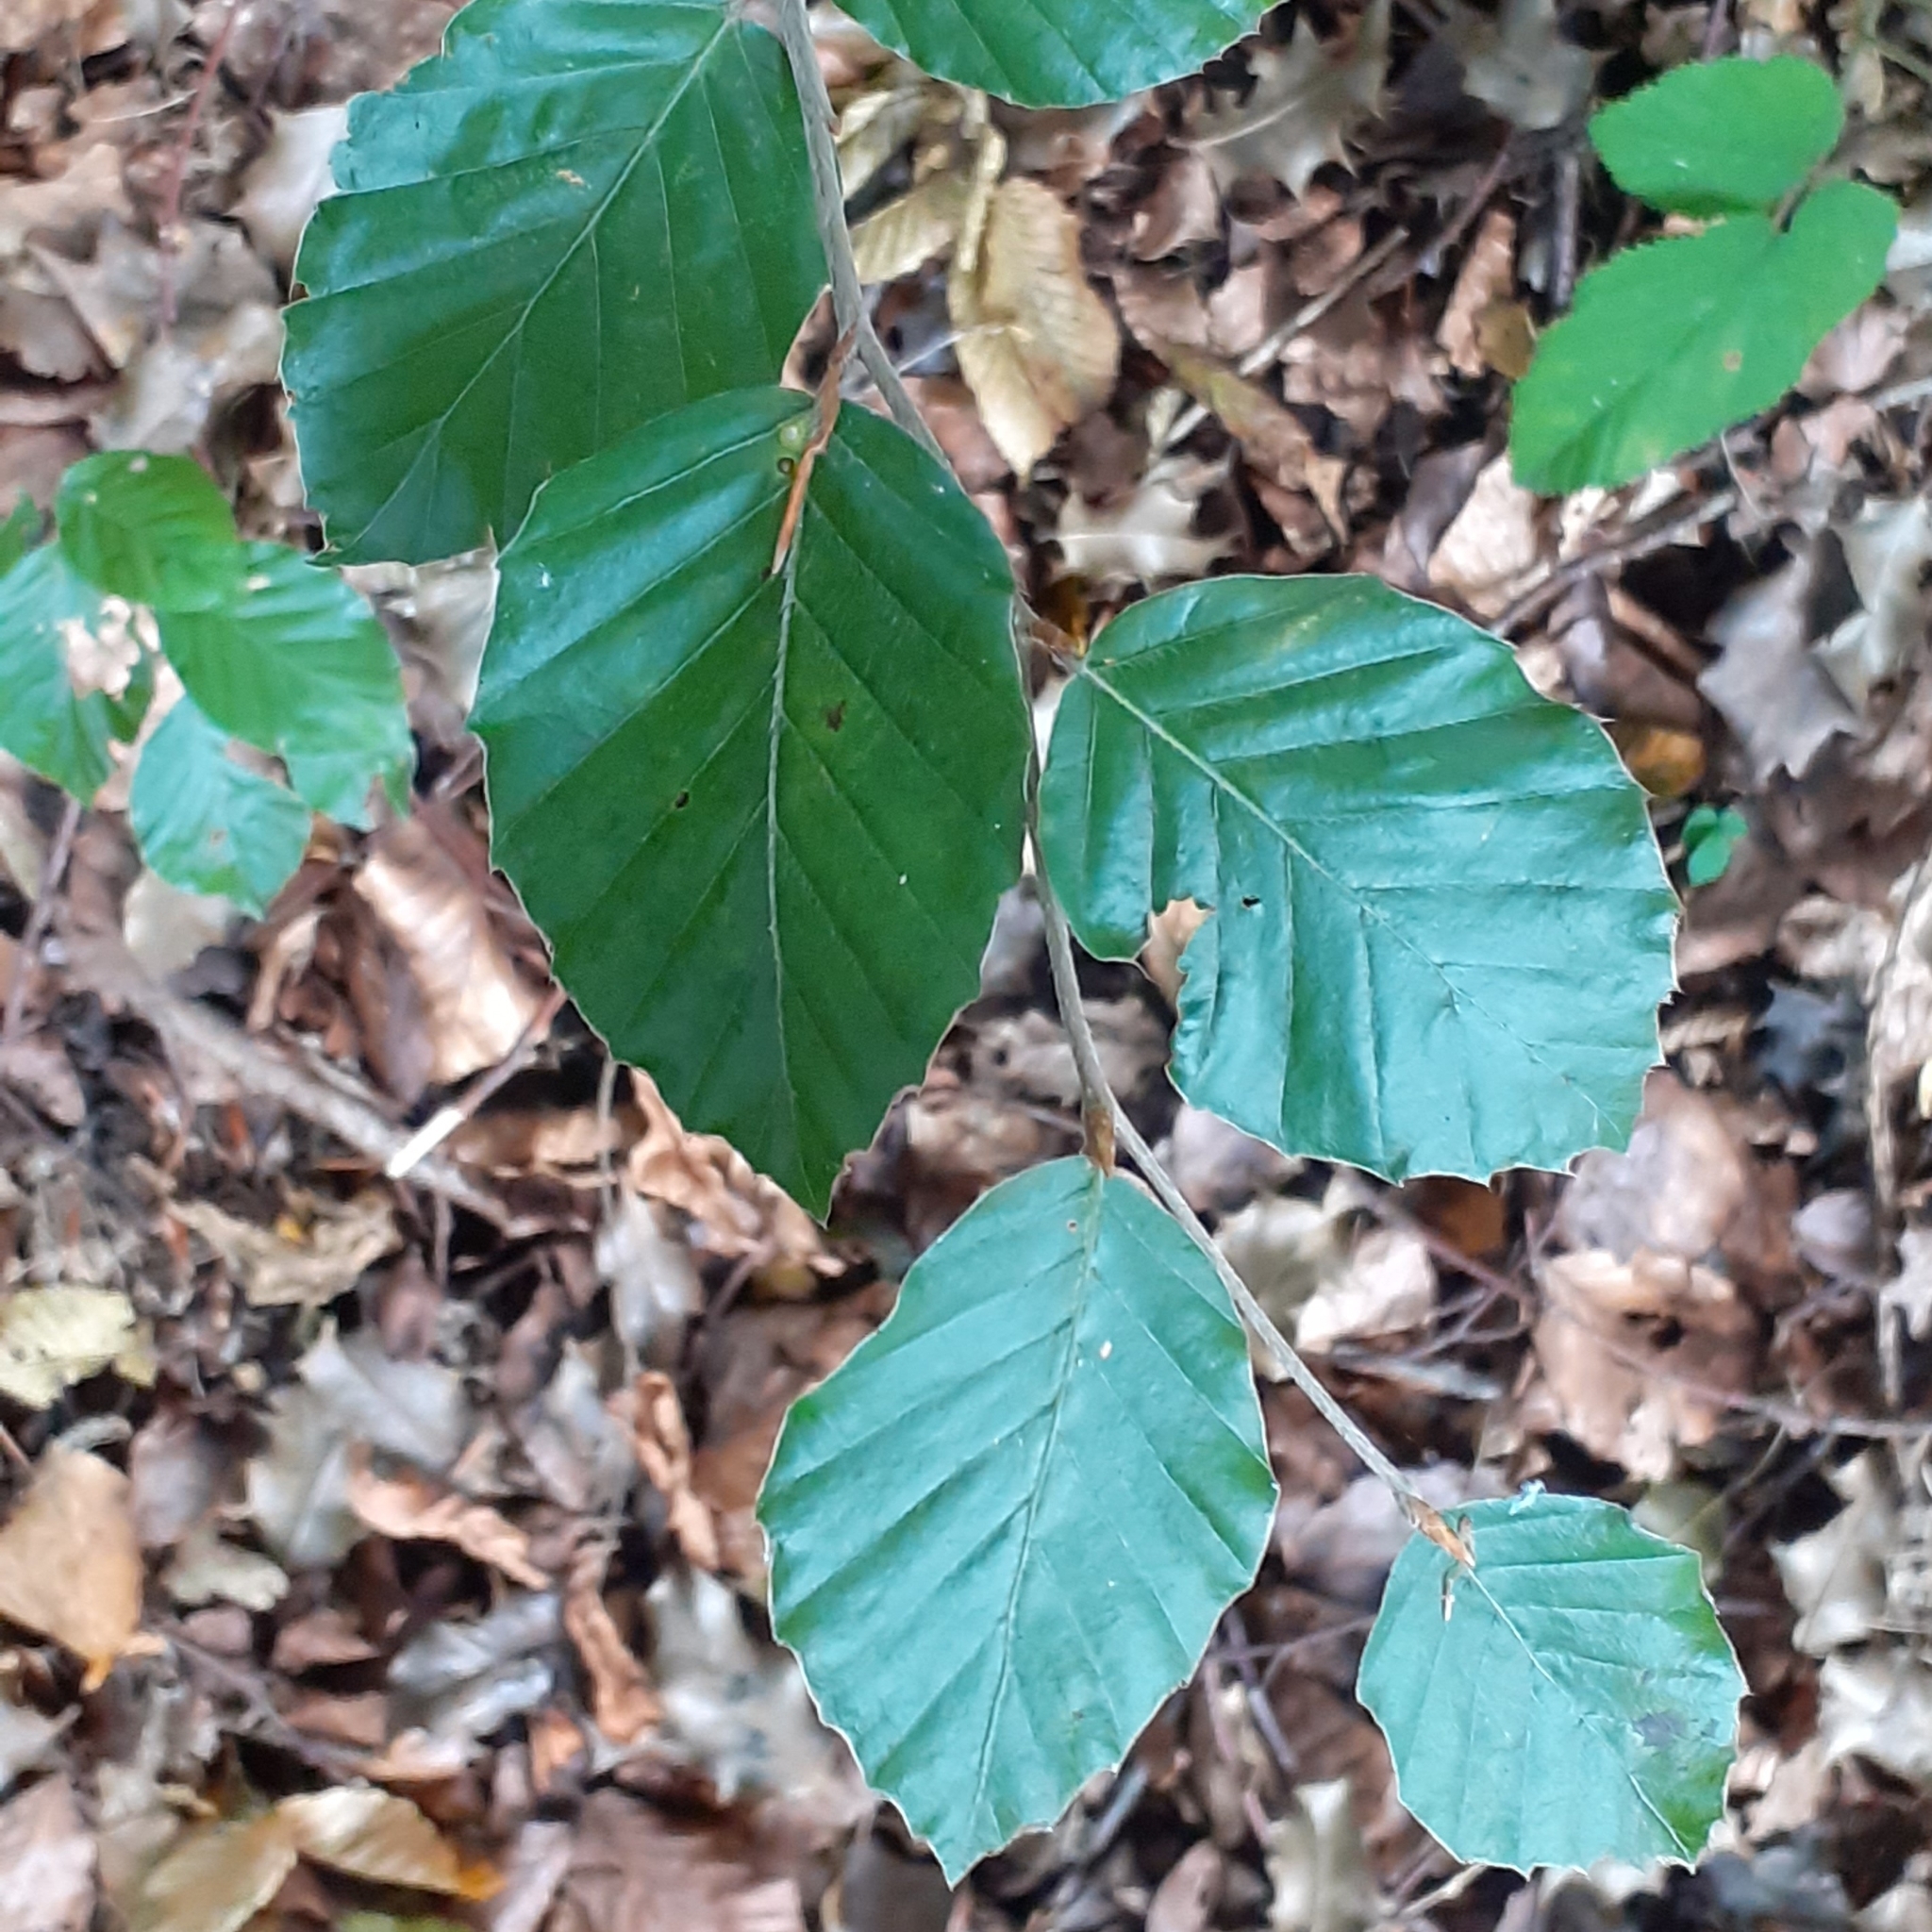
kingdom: Plantae
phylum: Tracheophyta
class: Magnoliopsida
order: Fagales
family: Fagaceae
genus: Fagus
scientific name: Fagus sylvatica
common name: Beech
